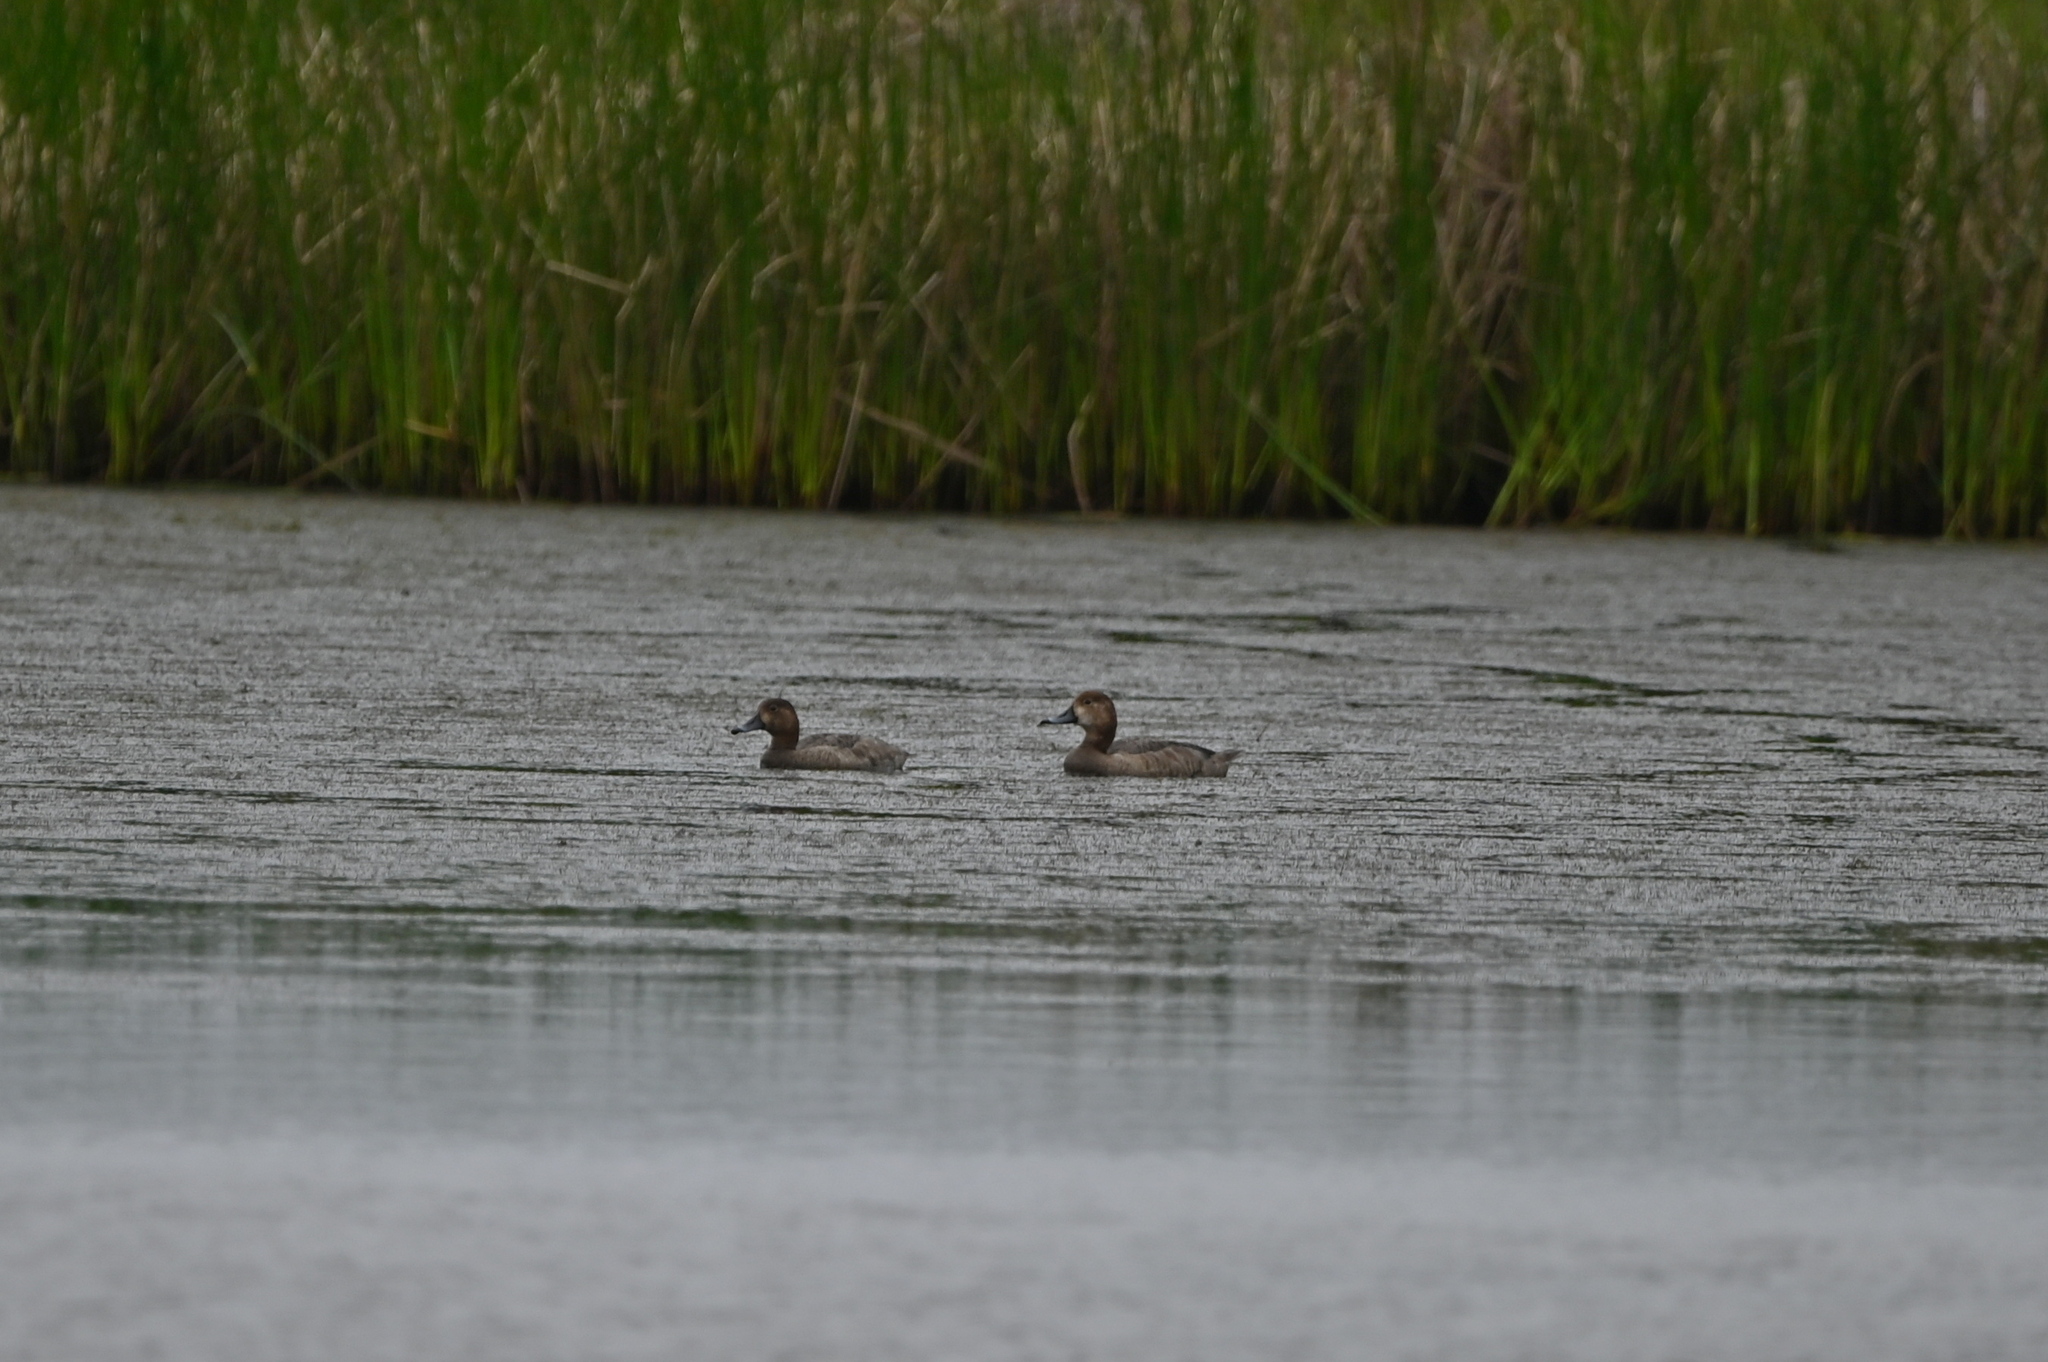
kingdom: Animalia
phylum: Chordata
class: Aves
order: Anseriformes
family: Anatidae
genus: Aythya
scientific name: Aythya americana
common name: Redhead
